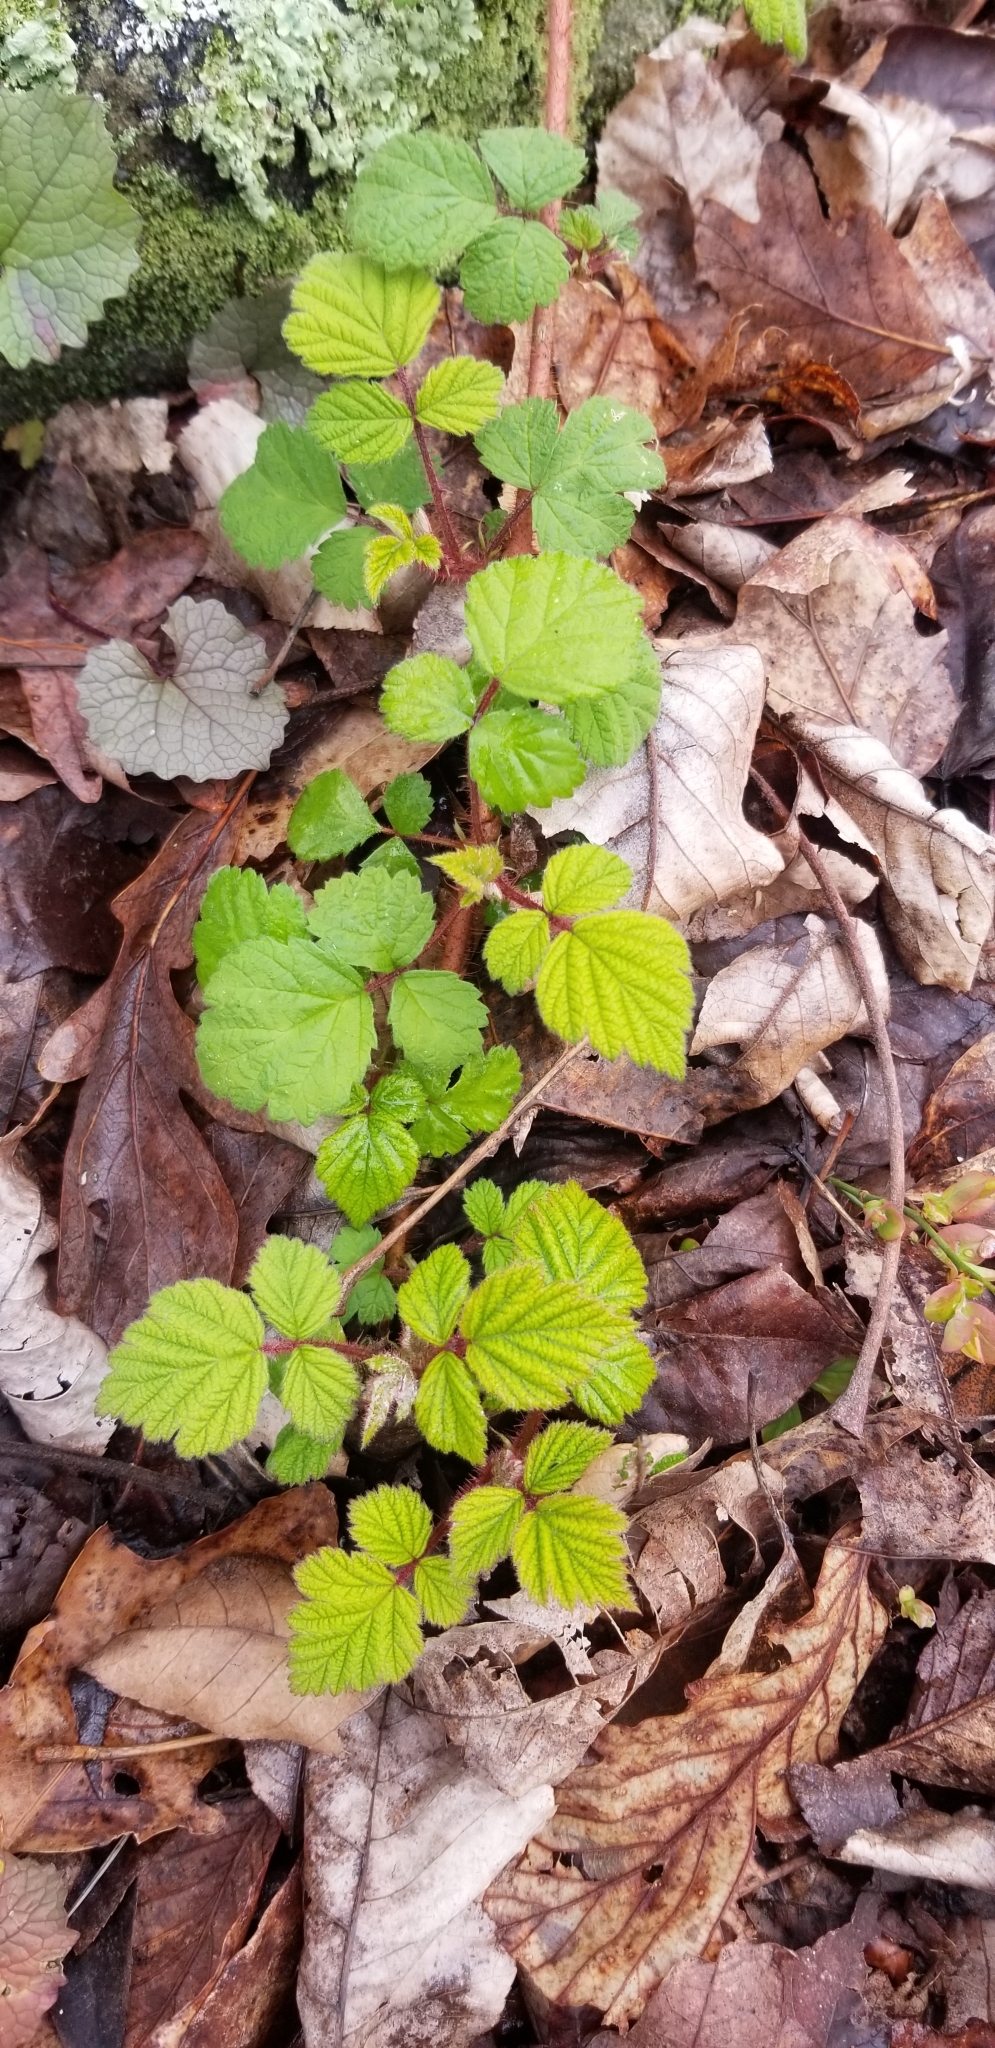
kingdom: Plantae
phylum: Tracheophyta
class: Magnoliopsida
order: Rosales
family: Rosaceae
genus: Rubus
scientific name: Rubus phoenicolasius
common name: Japanese wineberry
